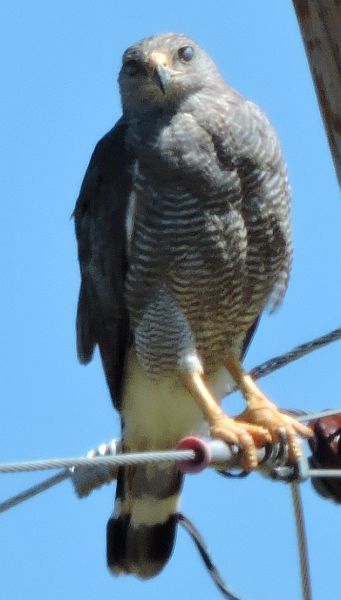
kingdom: Animalia
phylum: Chordata
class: Aves
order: Accipitriformes
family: Accipitridae
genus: Buteo
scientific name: Buteo nitidus
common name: Grey-lined hawk
